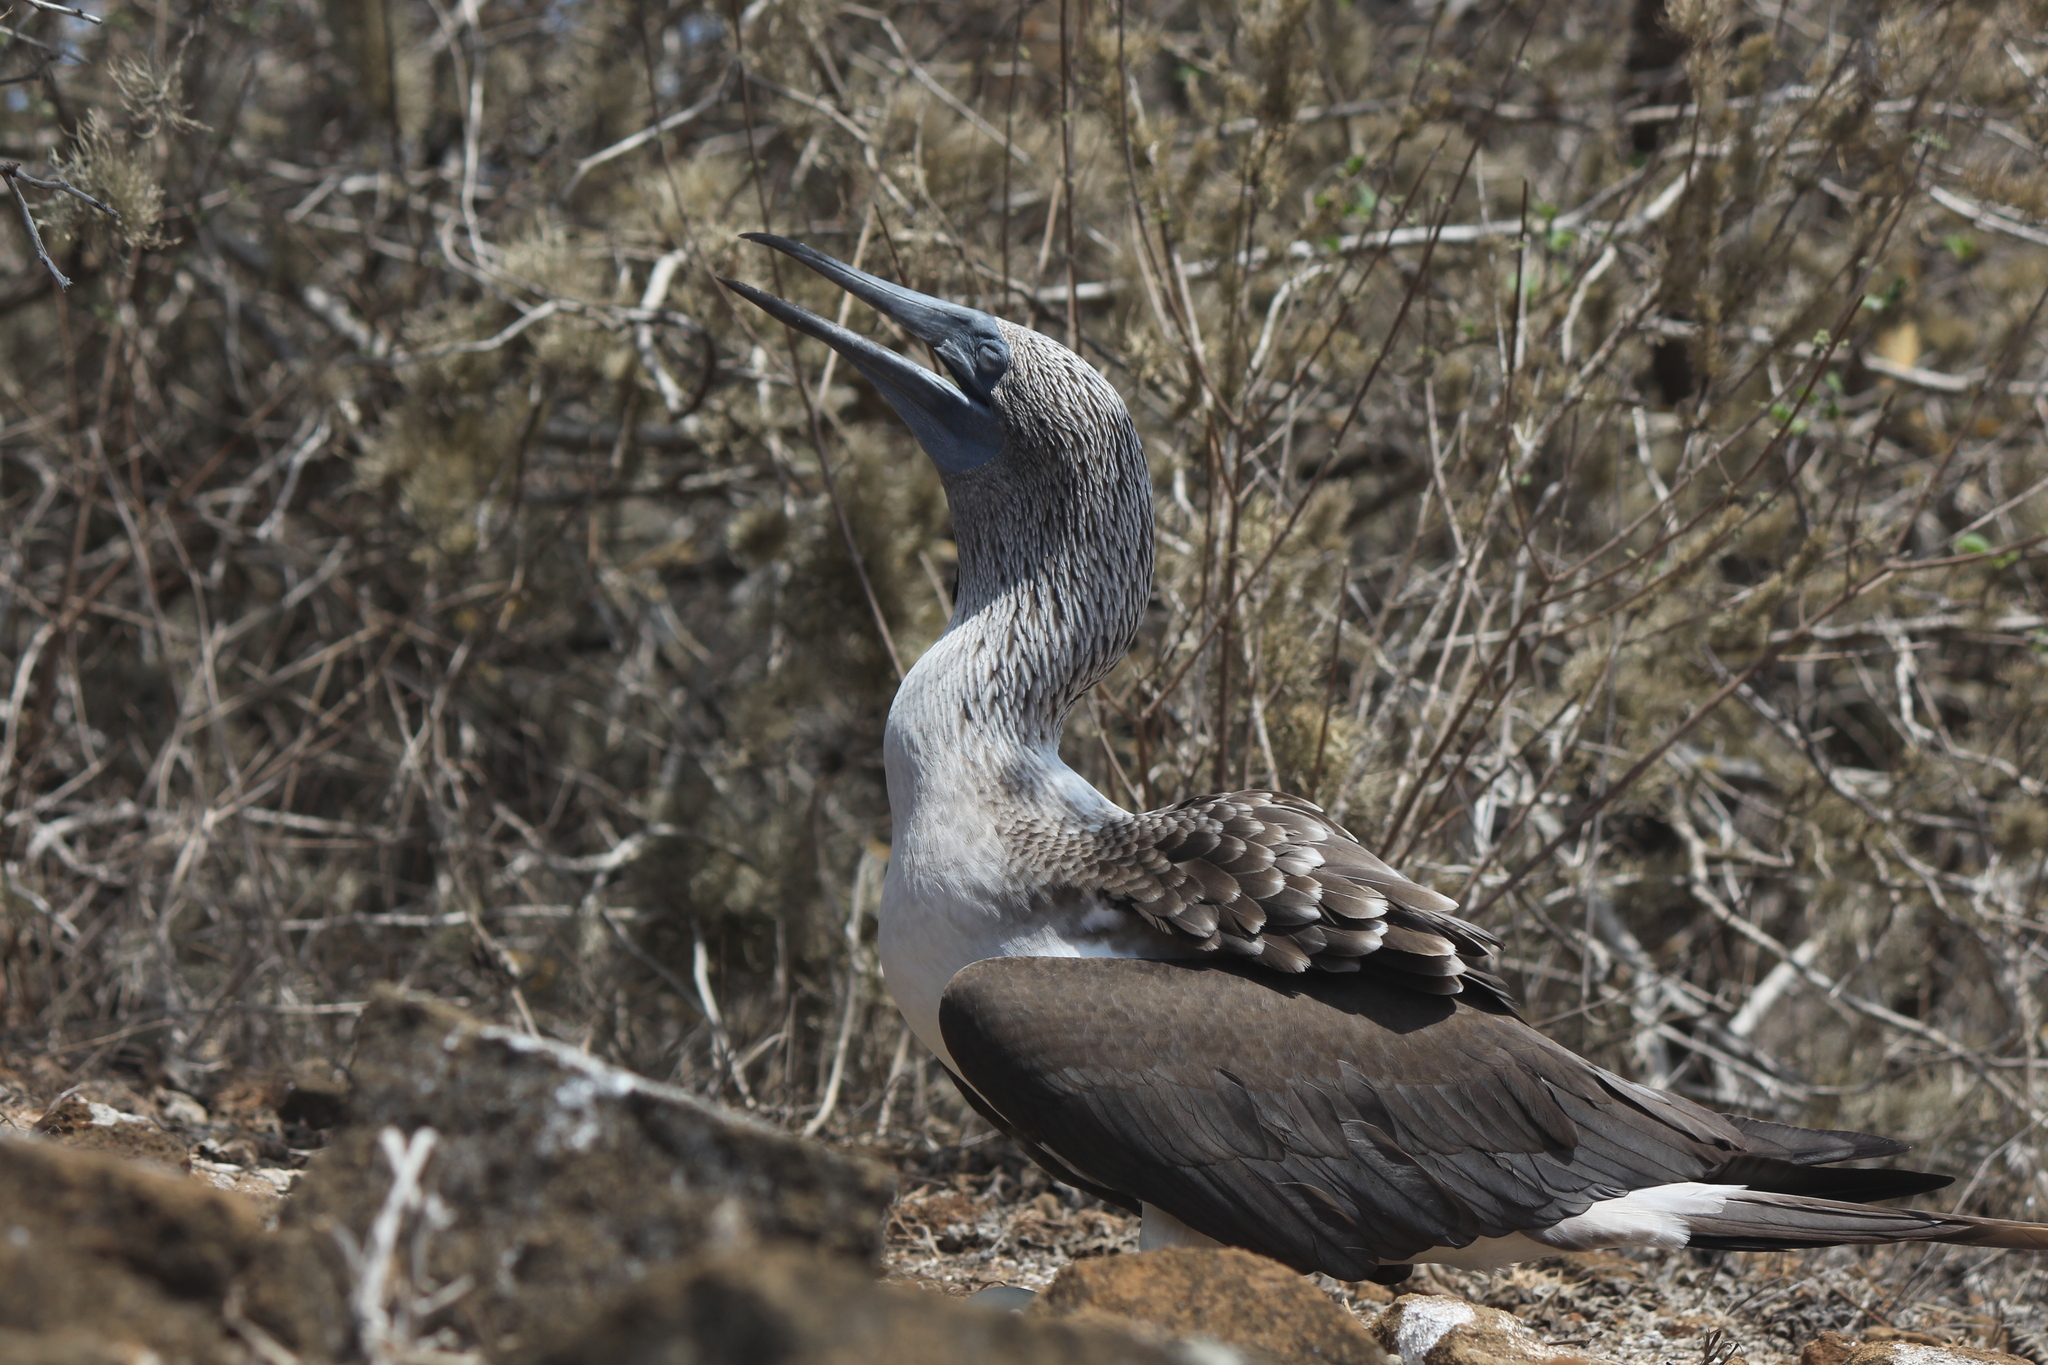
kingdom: Animalia
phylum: Chordata
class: Aves
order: Suliformes
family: Sulidae
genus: Sula
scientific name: Sula nebouxii
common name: Blue-footed booby
